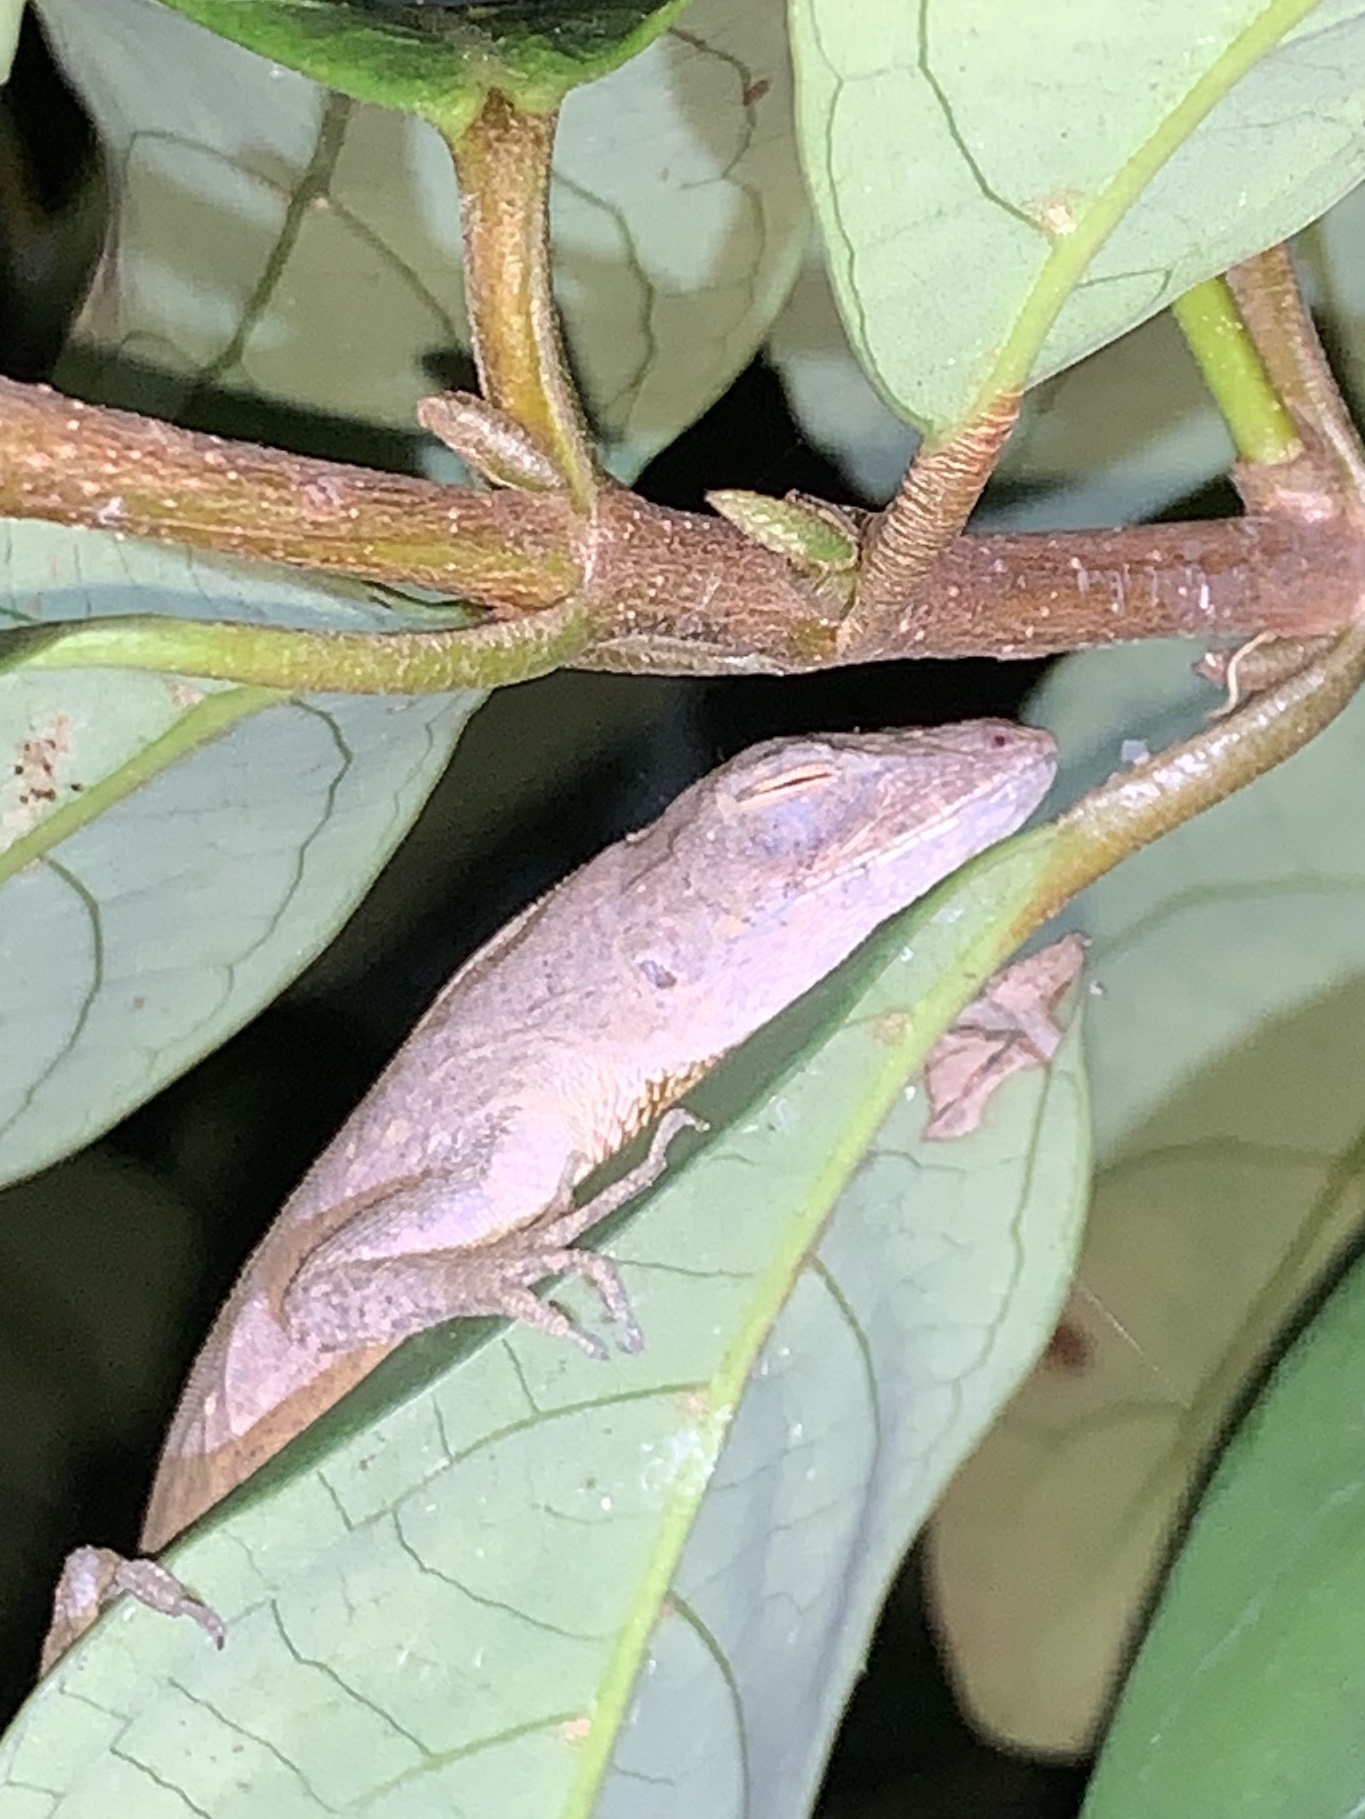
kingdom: Animalia
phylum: Chordata
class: Squamata
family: Dactyloidae
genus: Anolis
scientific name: Anolis sagrei
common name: Brown anole
